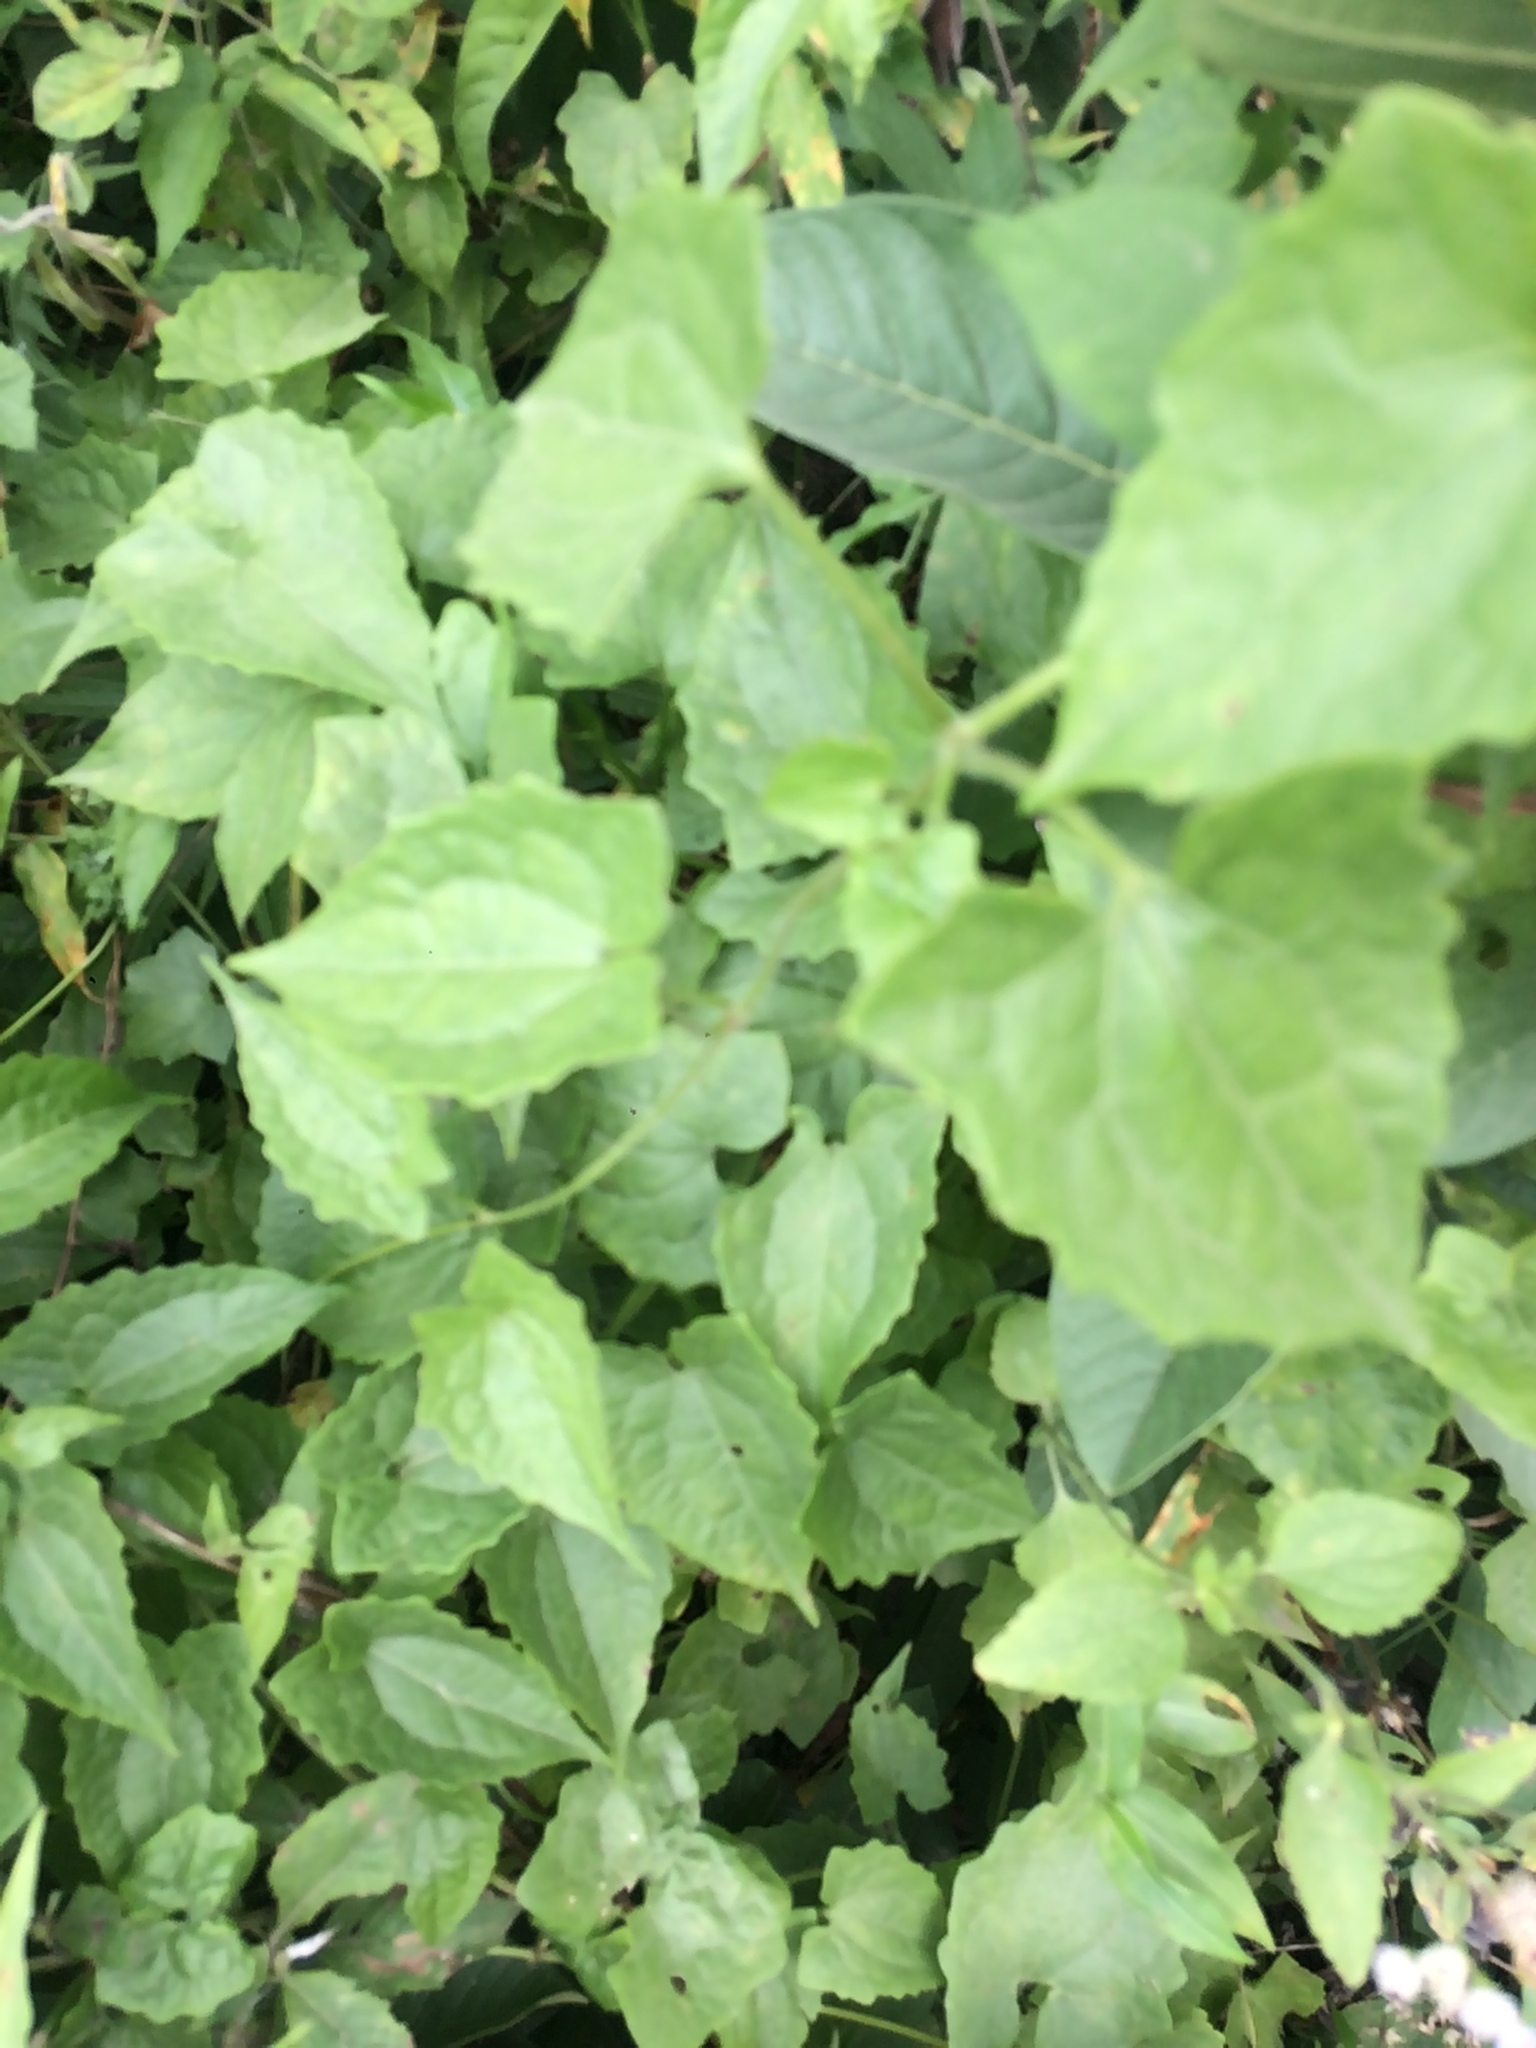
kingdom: Plantae
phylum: Tracheophyta
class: Magnoliopsida
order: Asterales
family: Asteraceae
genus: Mikania
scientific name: Mikania micrantha
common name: Mile-a-minute
